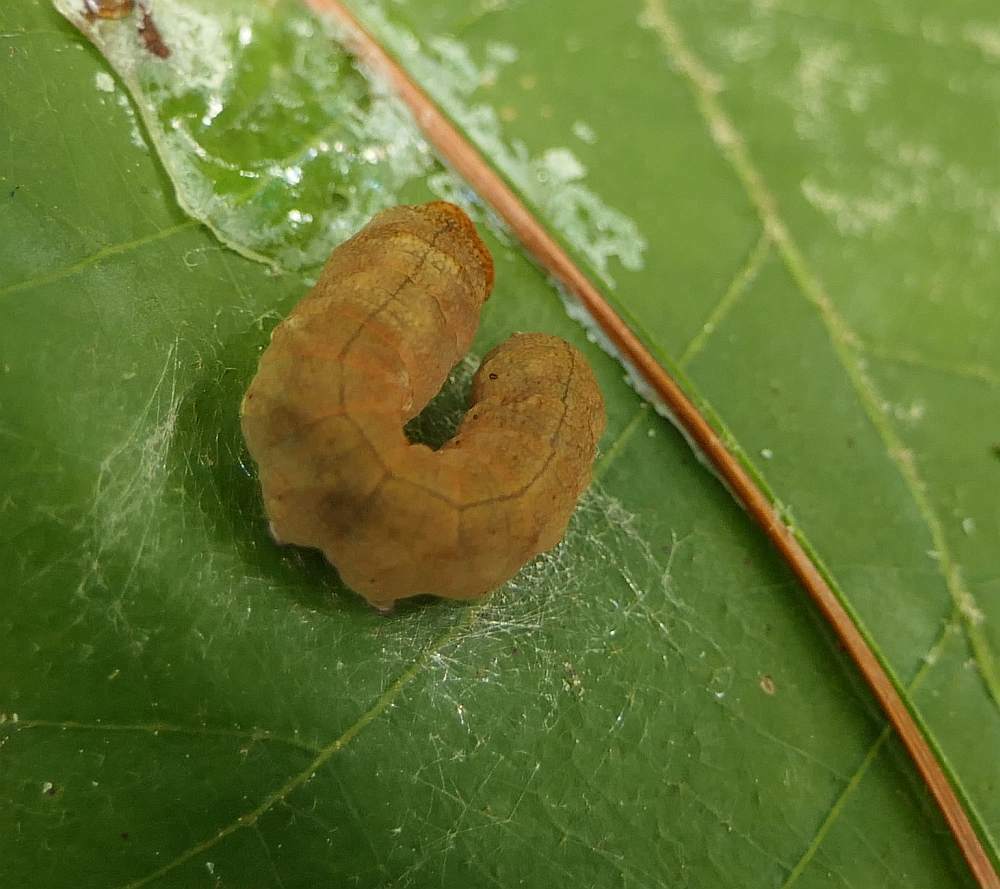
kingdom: Animalia
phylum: Arthropoda
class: Insecta
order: Lepidoptera
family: Drepanidae
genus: Pseudothyatira
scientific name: Pseudothyatira cymatophoroides
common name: Tufted thyatirid moth
